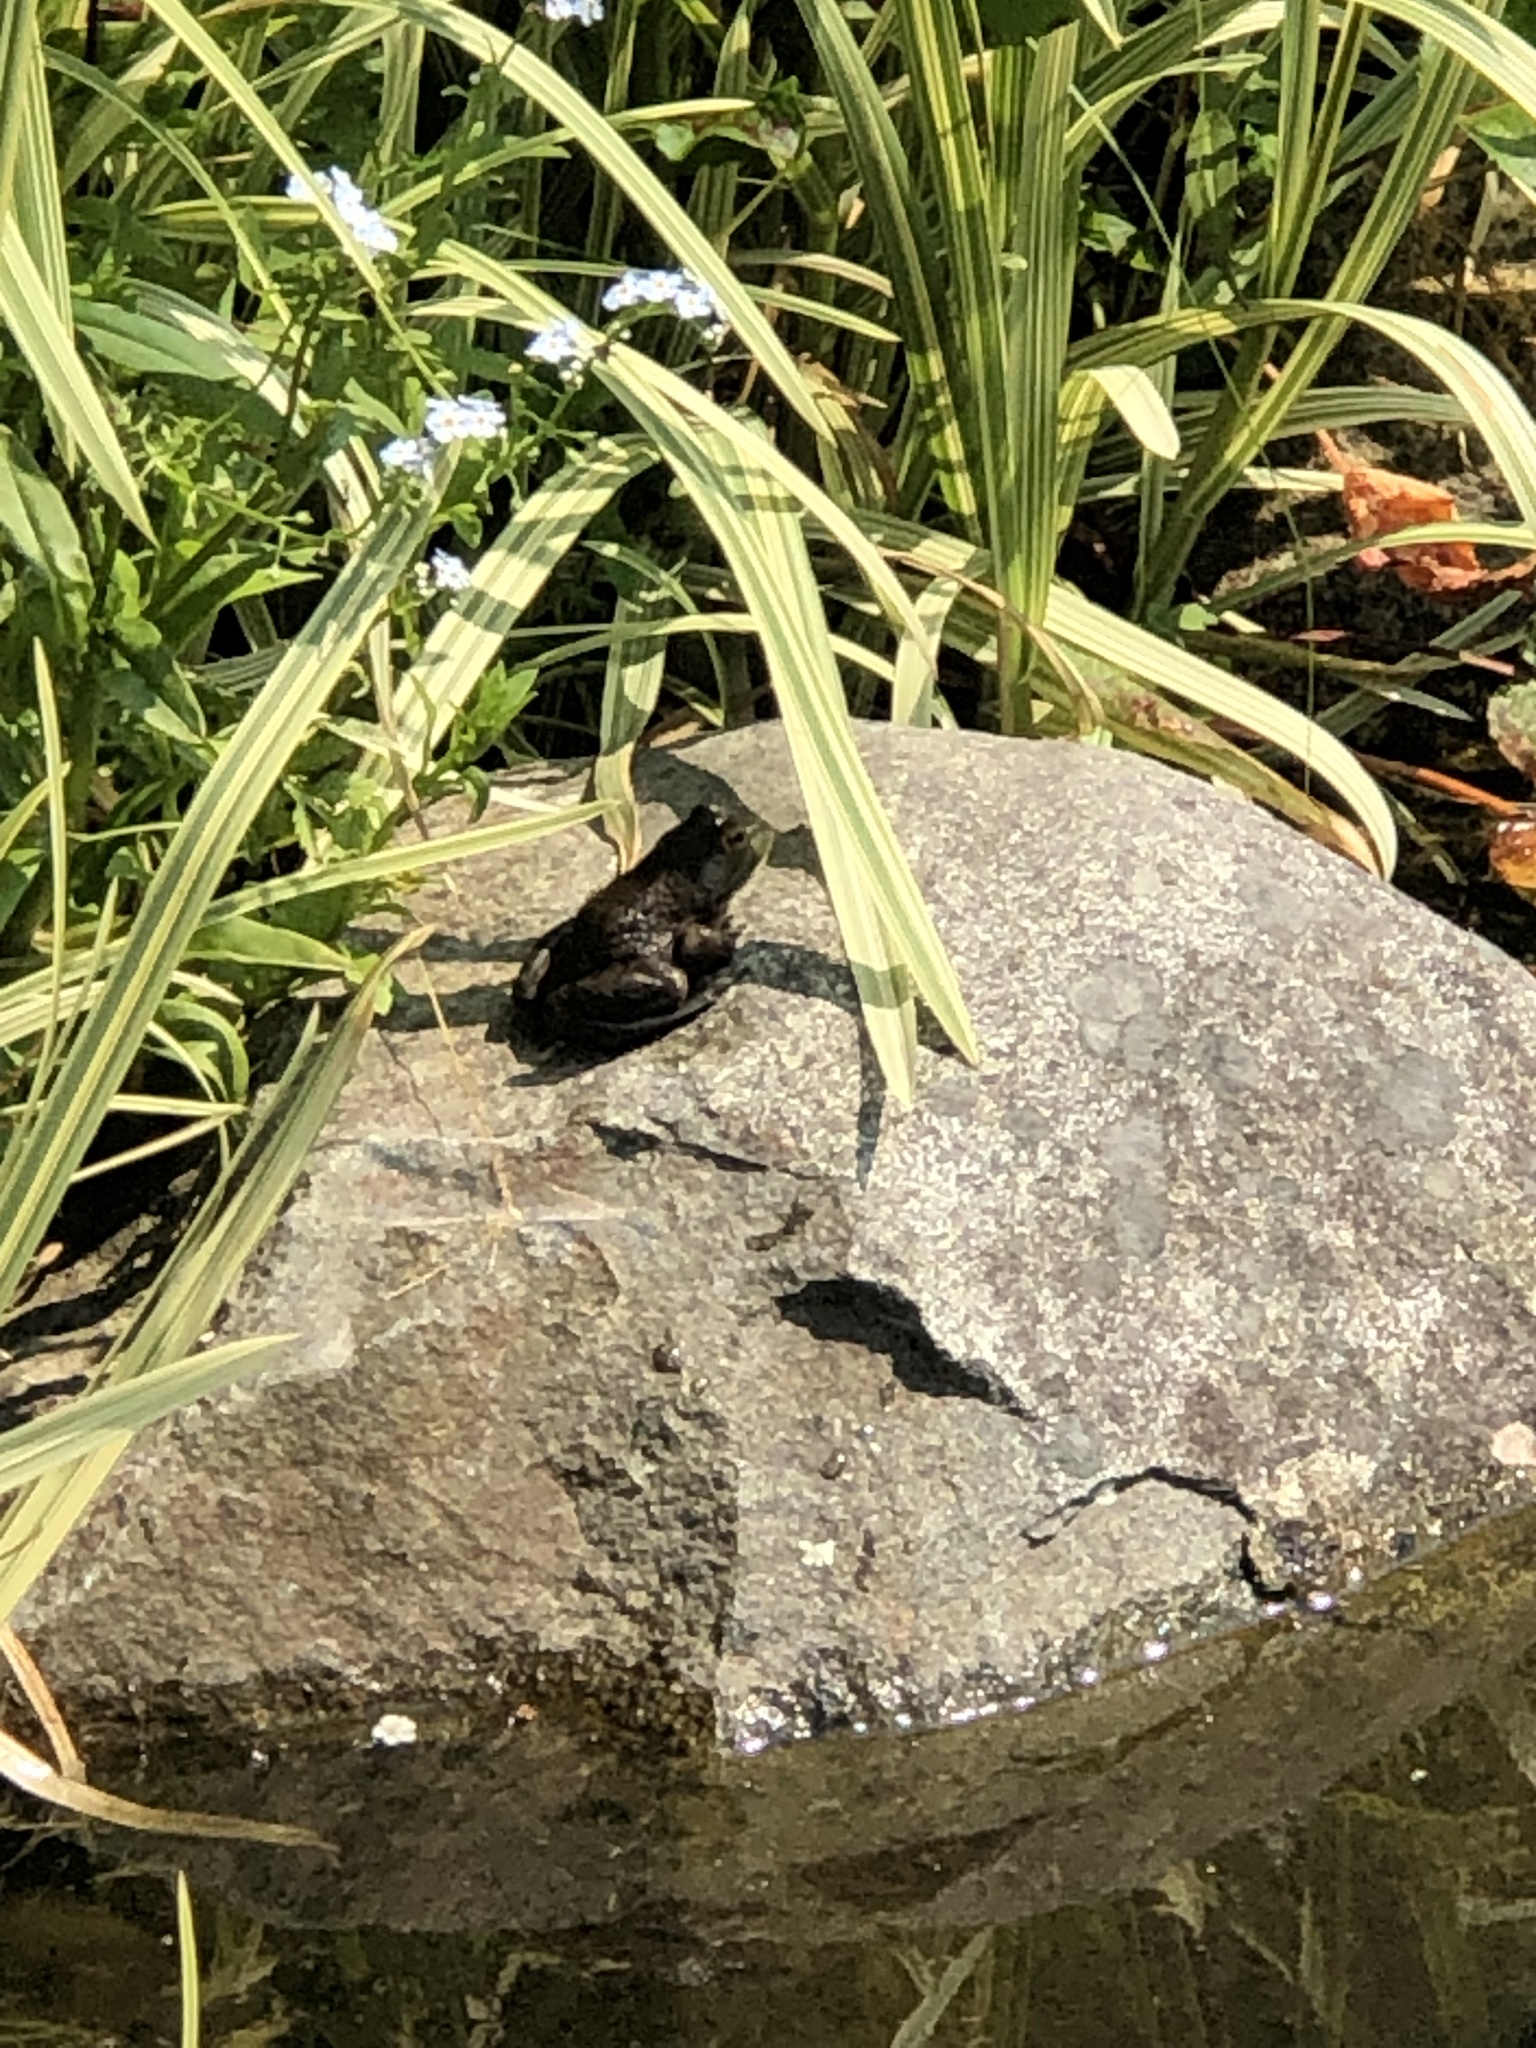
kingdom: Animalia
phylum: Chordata
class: Amphibia
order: Anura
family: Ranidae
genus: Lithobates
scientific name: Lithobates catesbeianus
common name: American bullfrog
